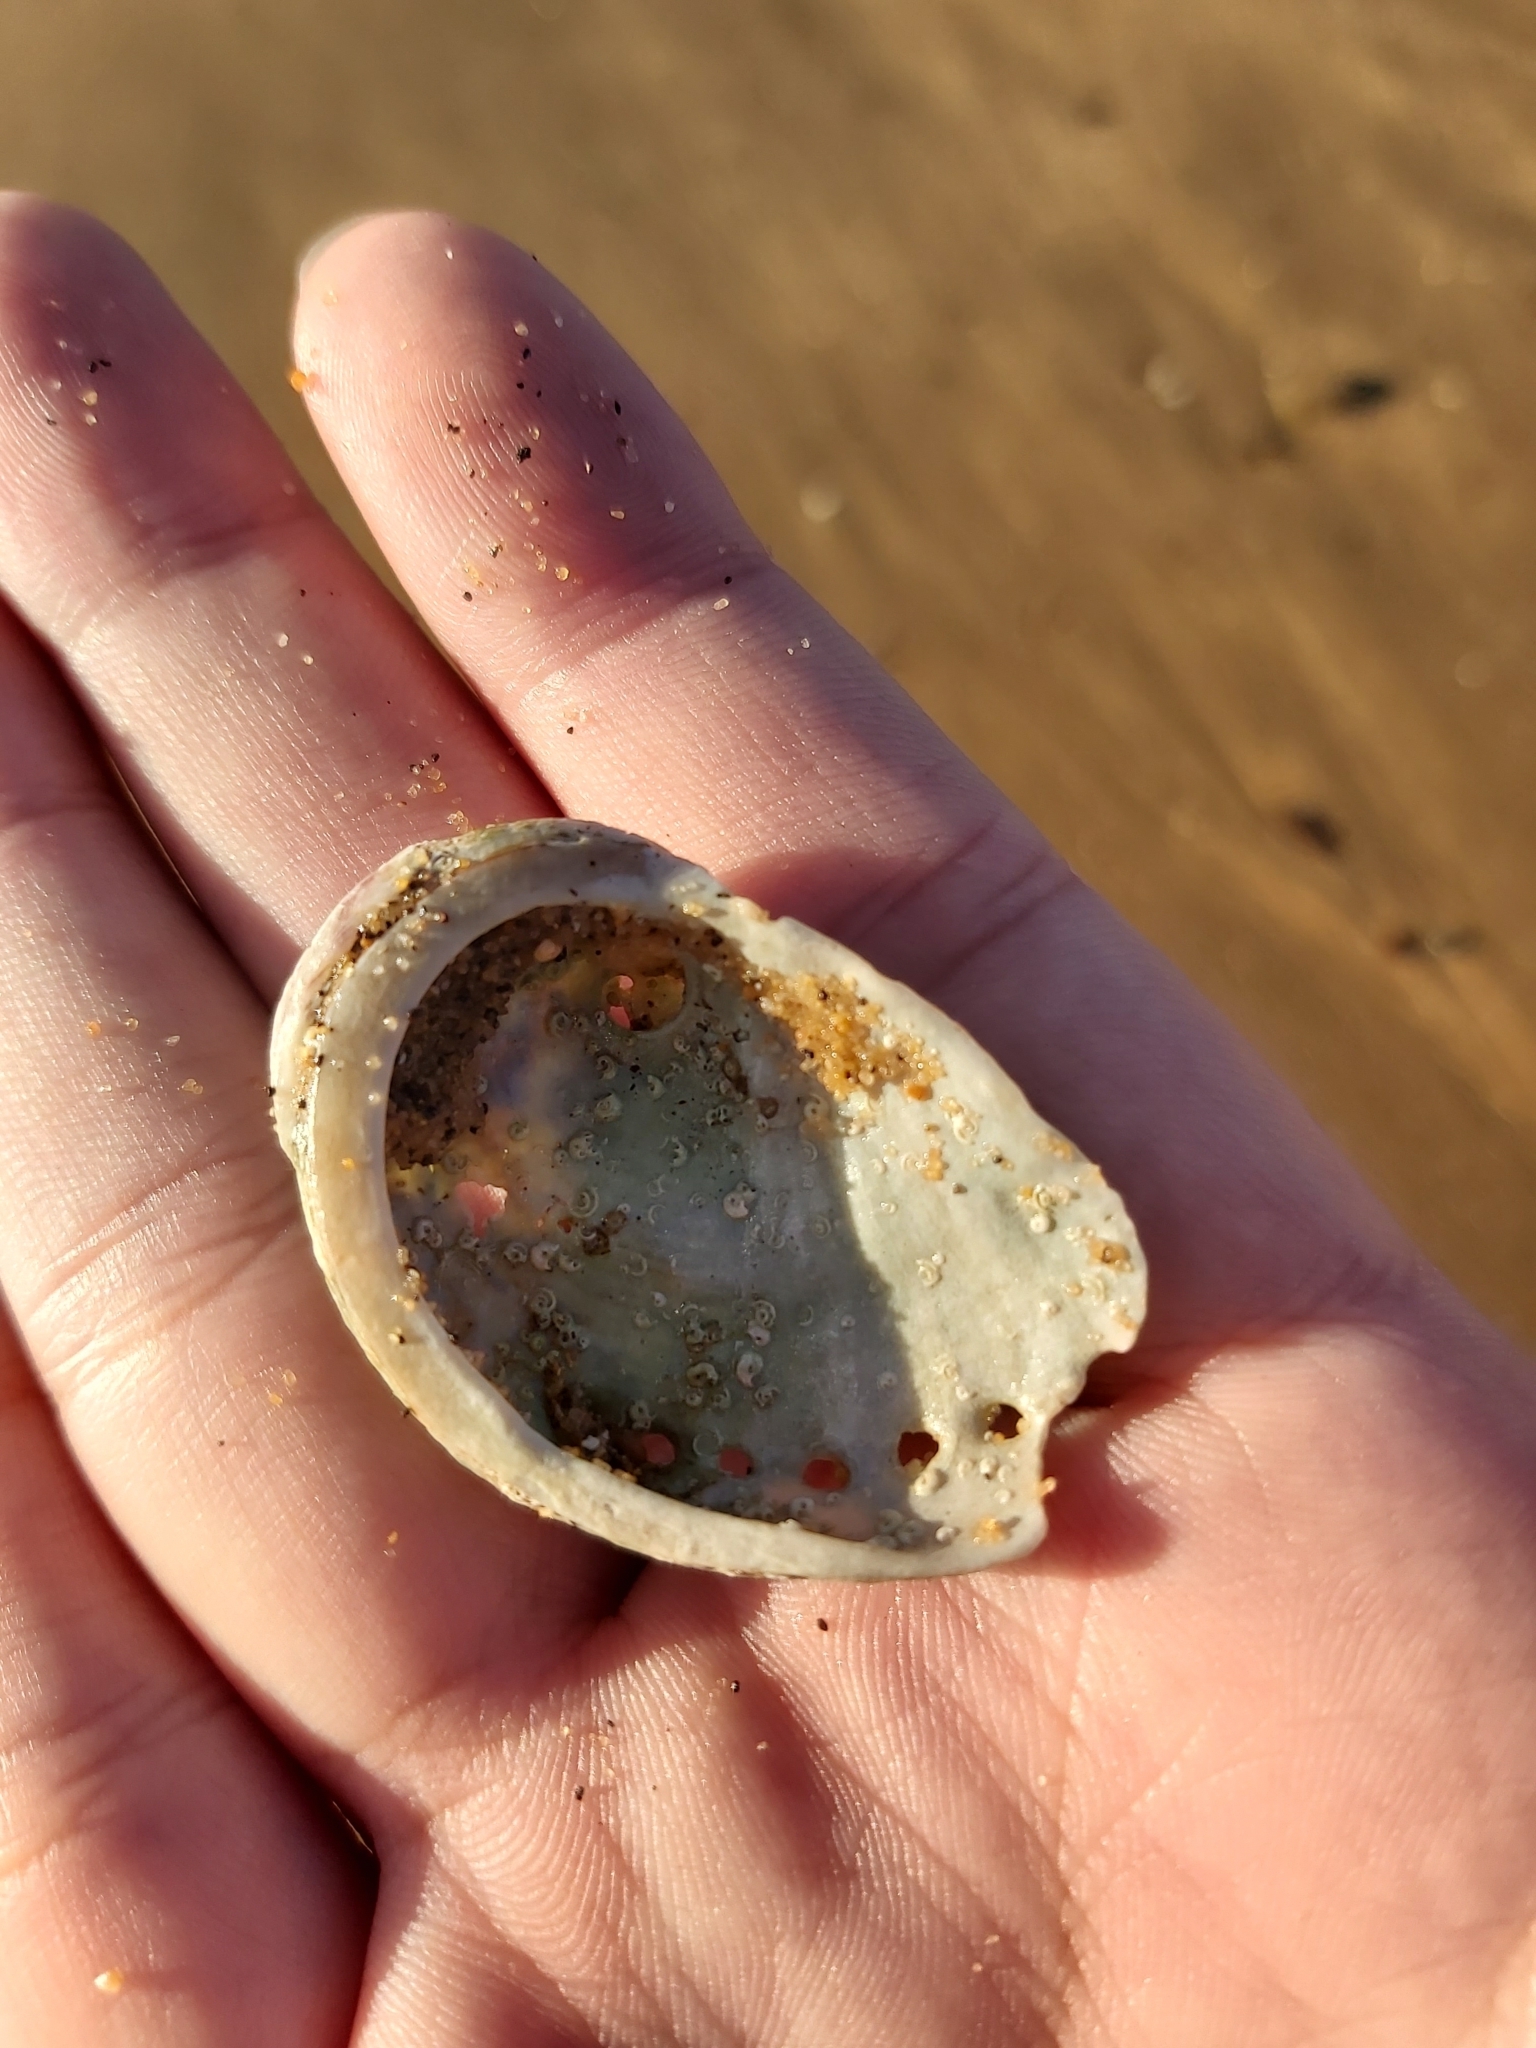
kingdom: Animalia
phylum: Mollusca
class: Gastropoda
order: Lepetellida
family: Haliotidae
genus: Haliotis
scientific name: Haliotis brazieri
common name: Brazier's ear shell
